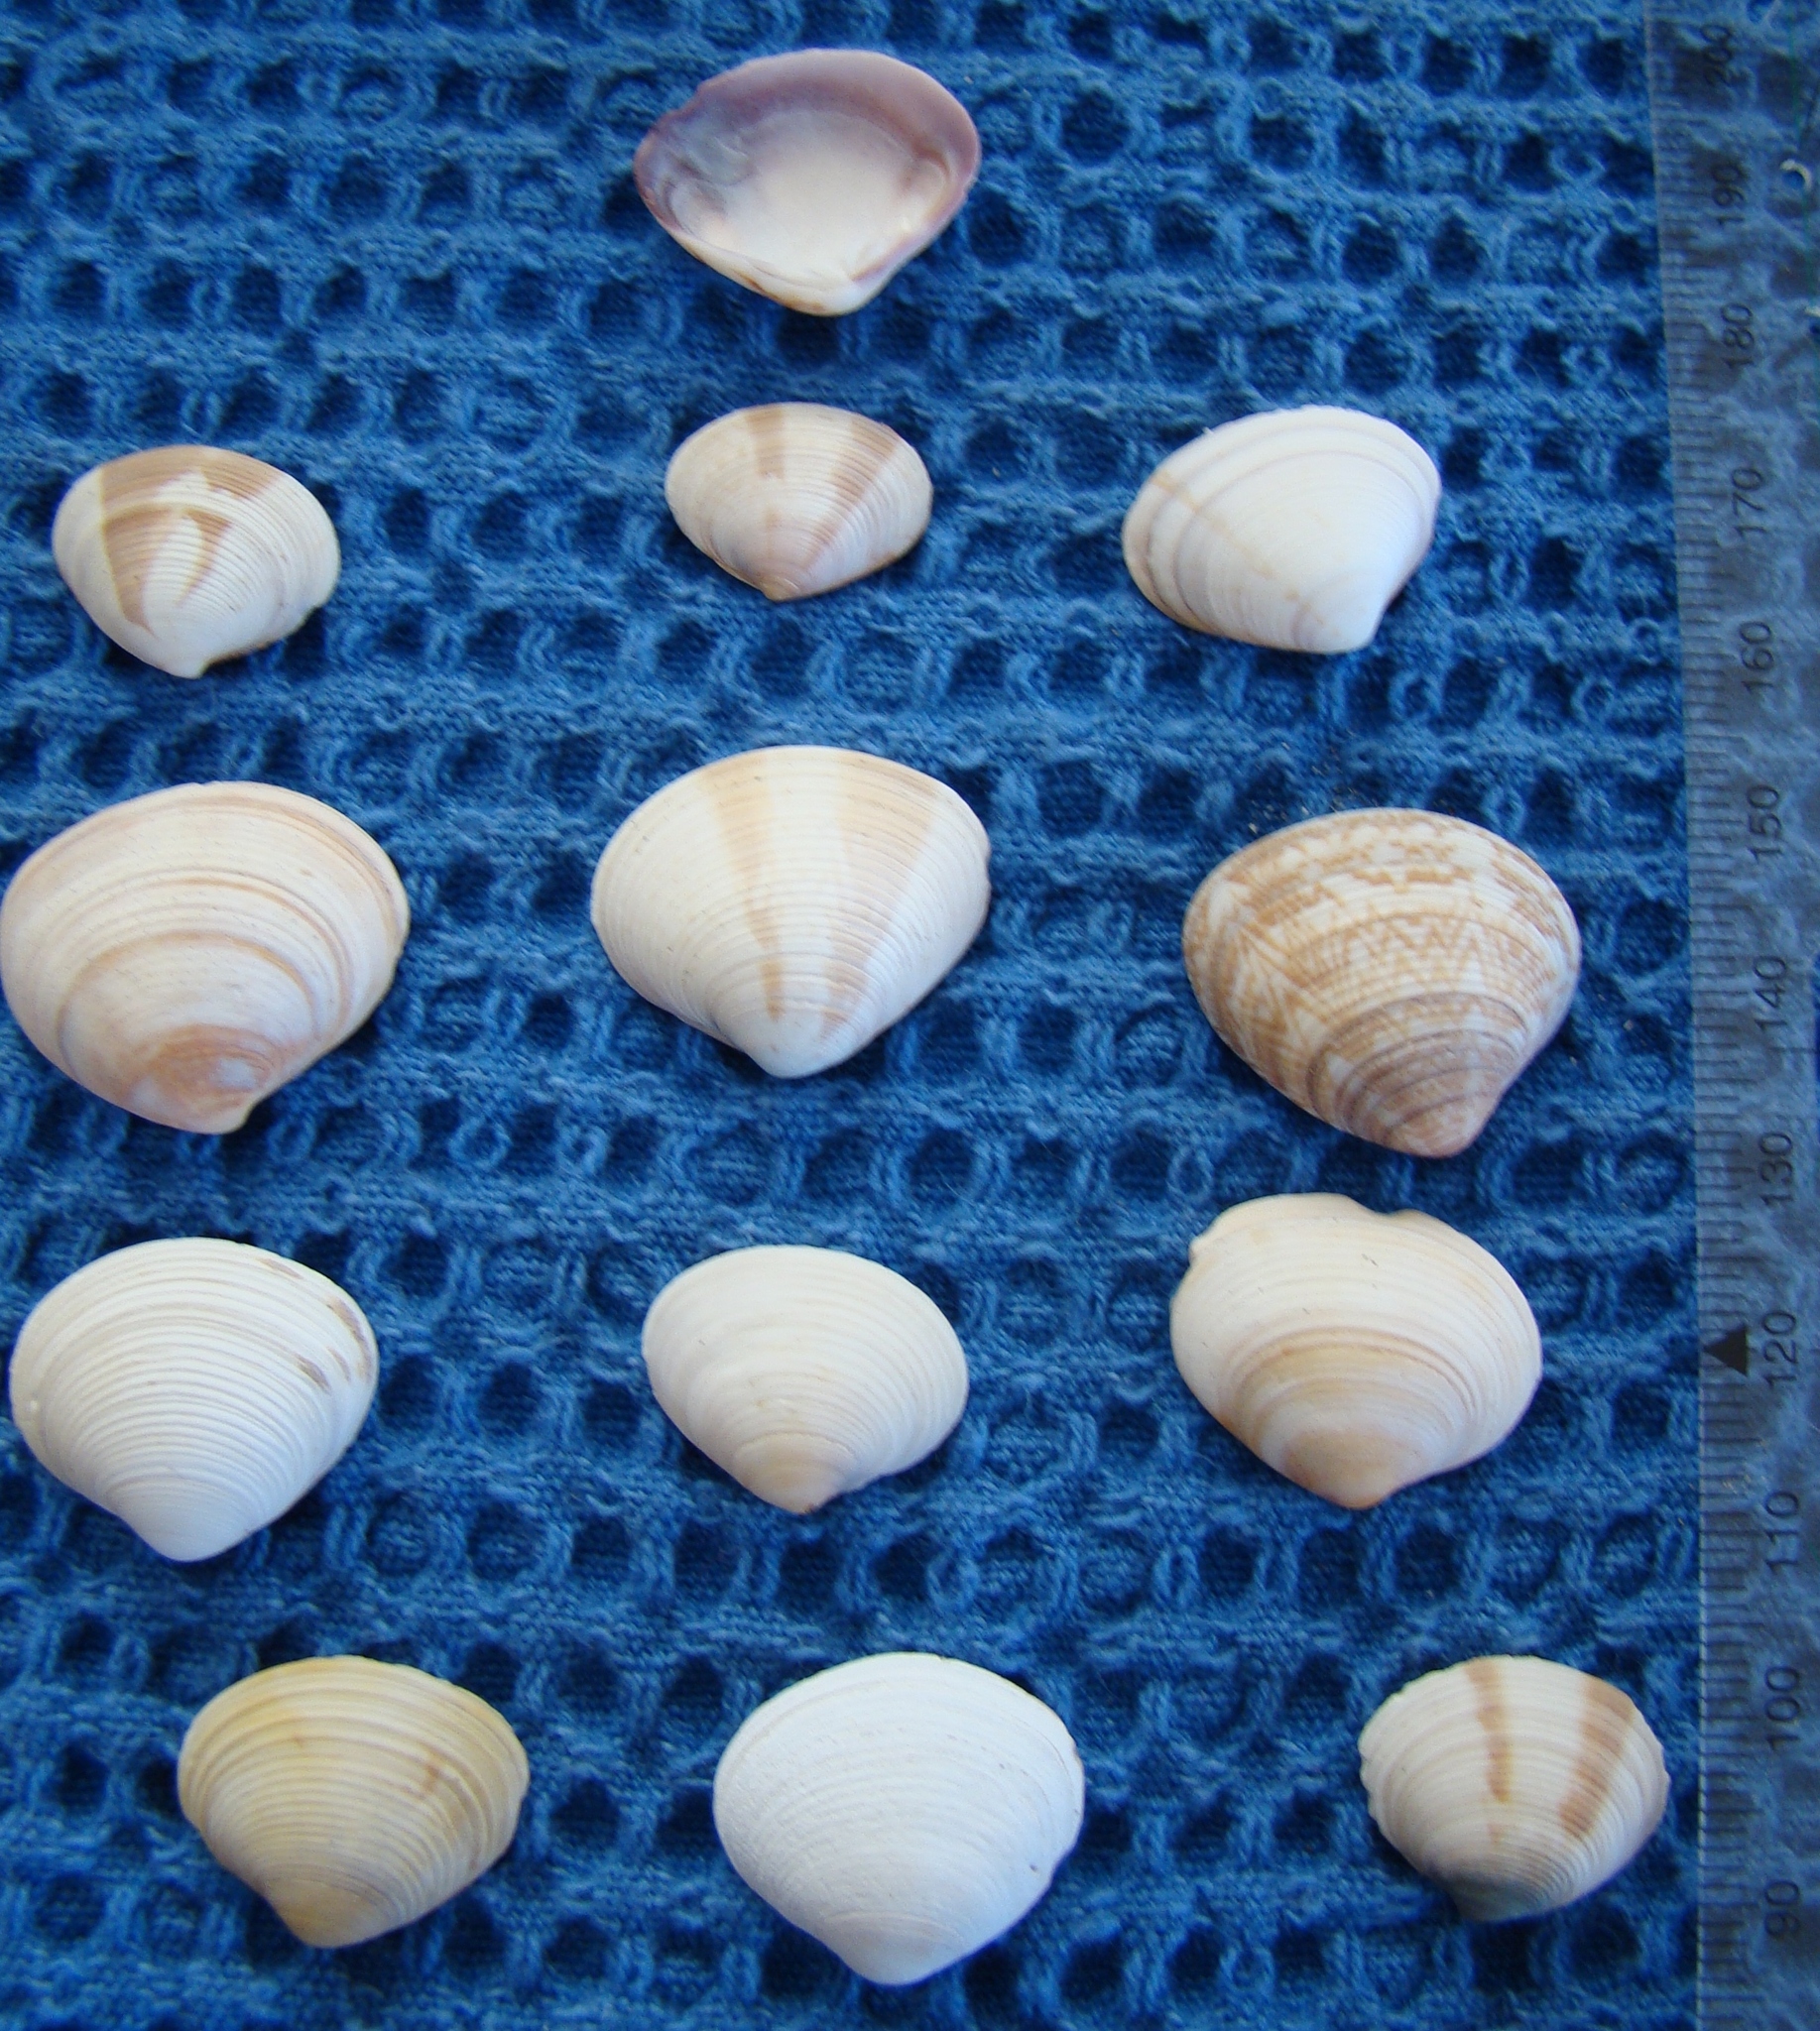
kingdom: Animalia
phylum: Mollusca
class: Bivalvia
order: Venerida
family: Veneridae
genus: Tawera
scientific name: Tawera spissa
